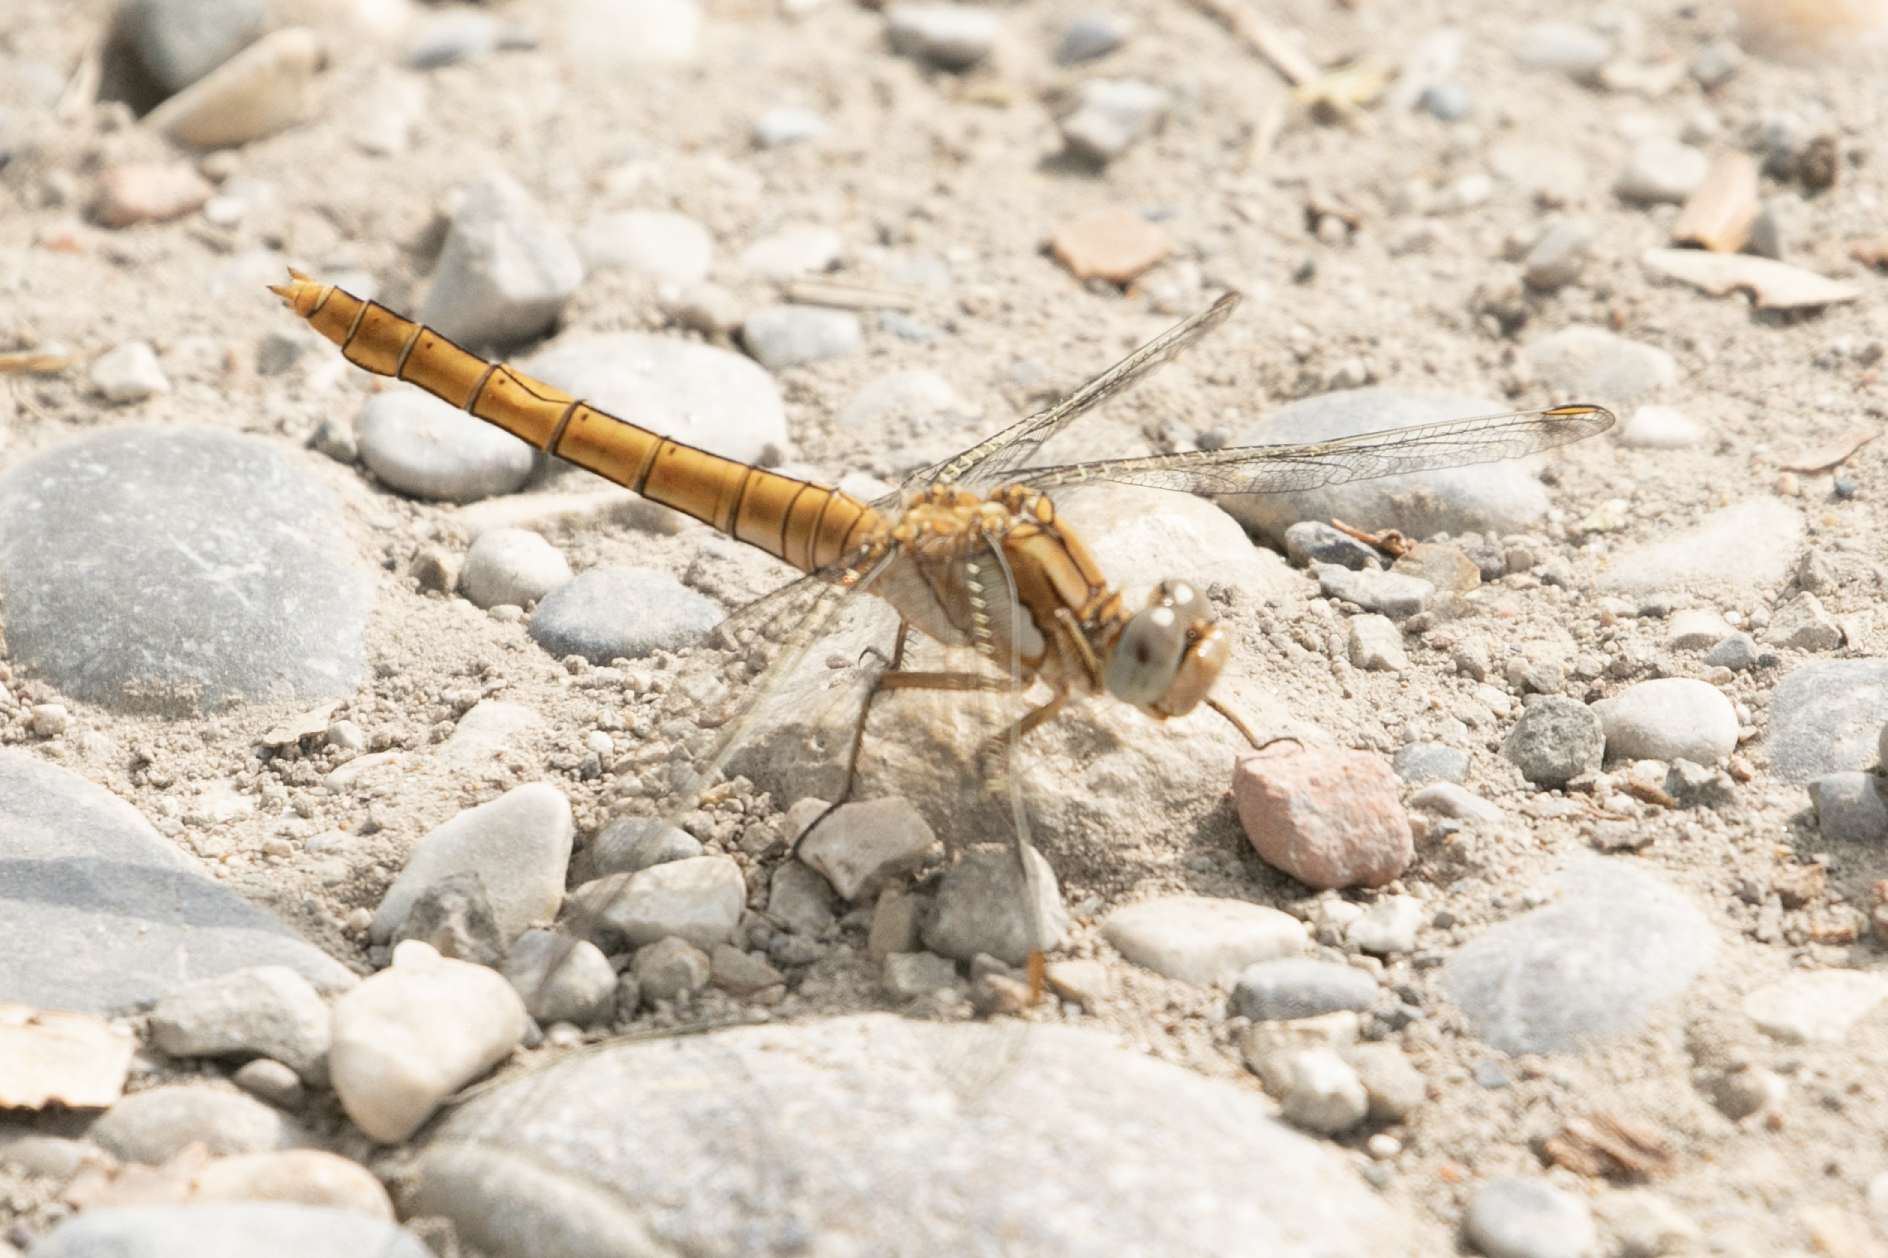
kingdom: Animalia
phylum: Arthropoda
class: Insecta
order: Odonata
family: Libellulidae
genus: Orthetrum
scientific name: Orthetrum brunneum
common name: Southern skimmer
